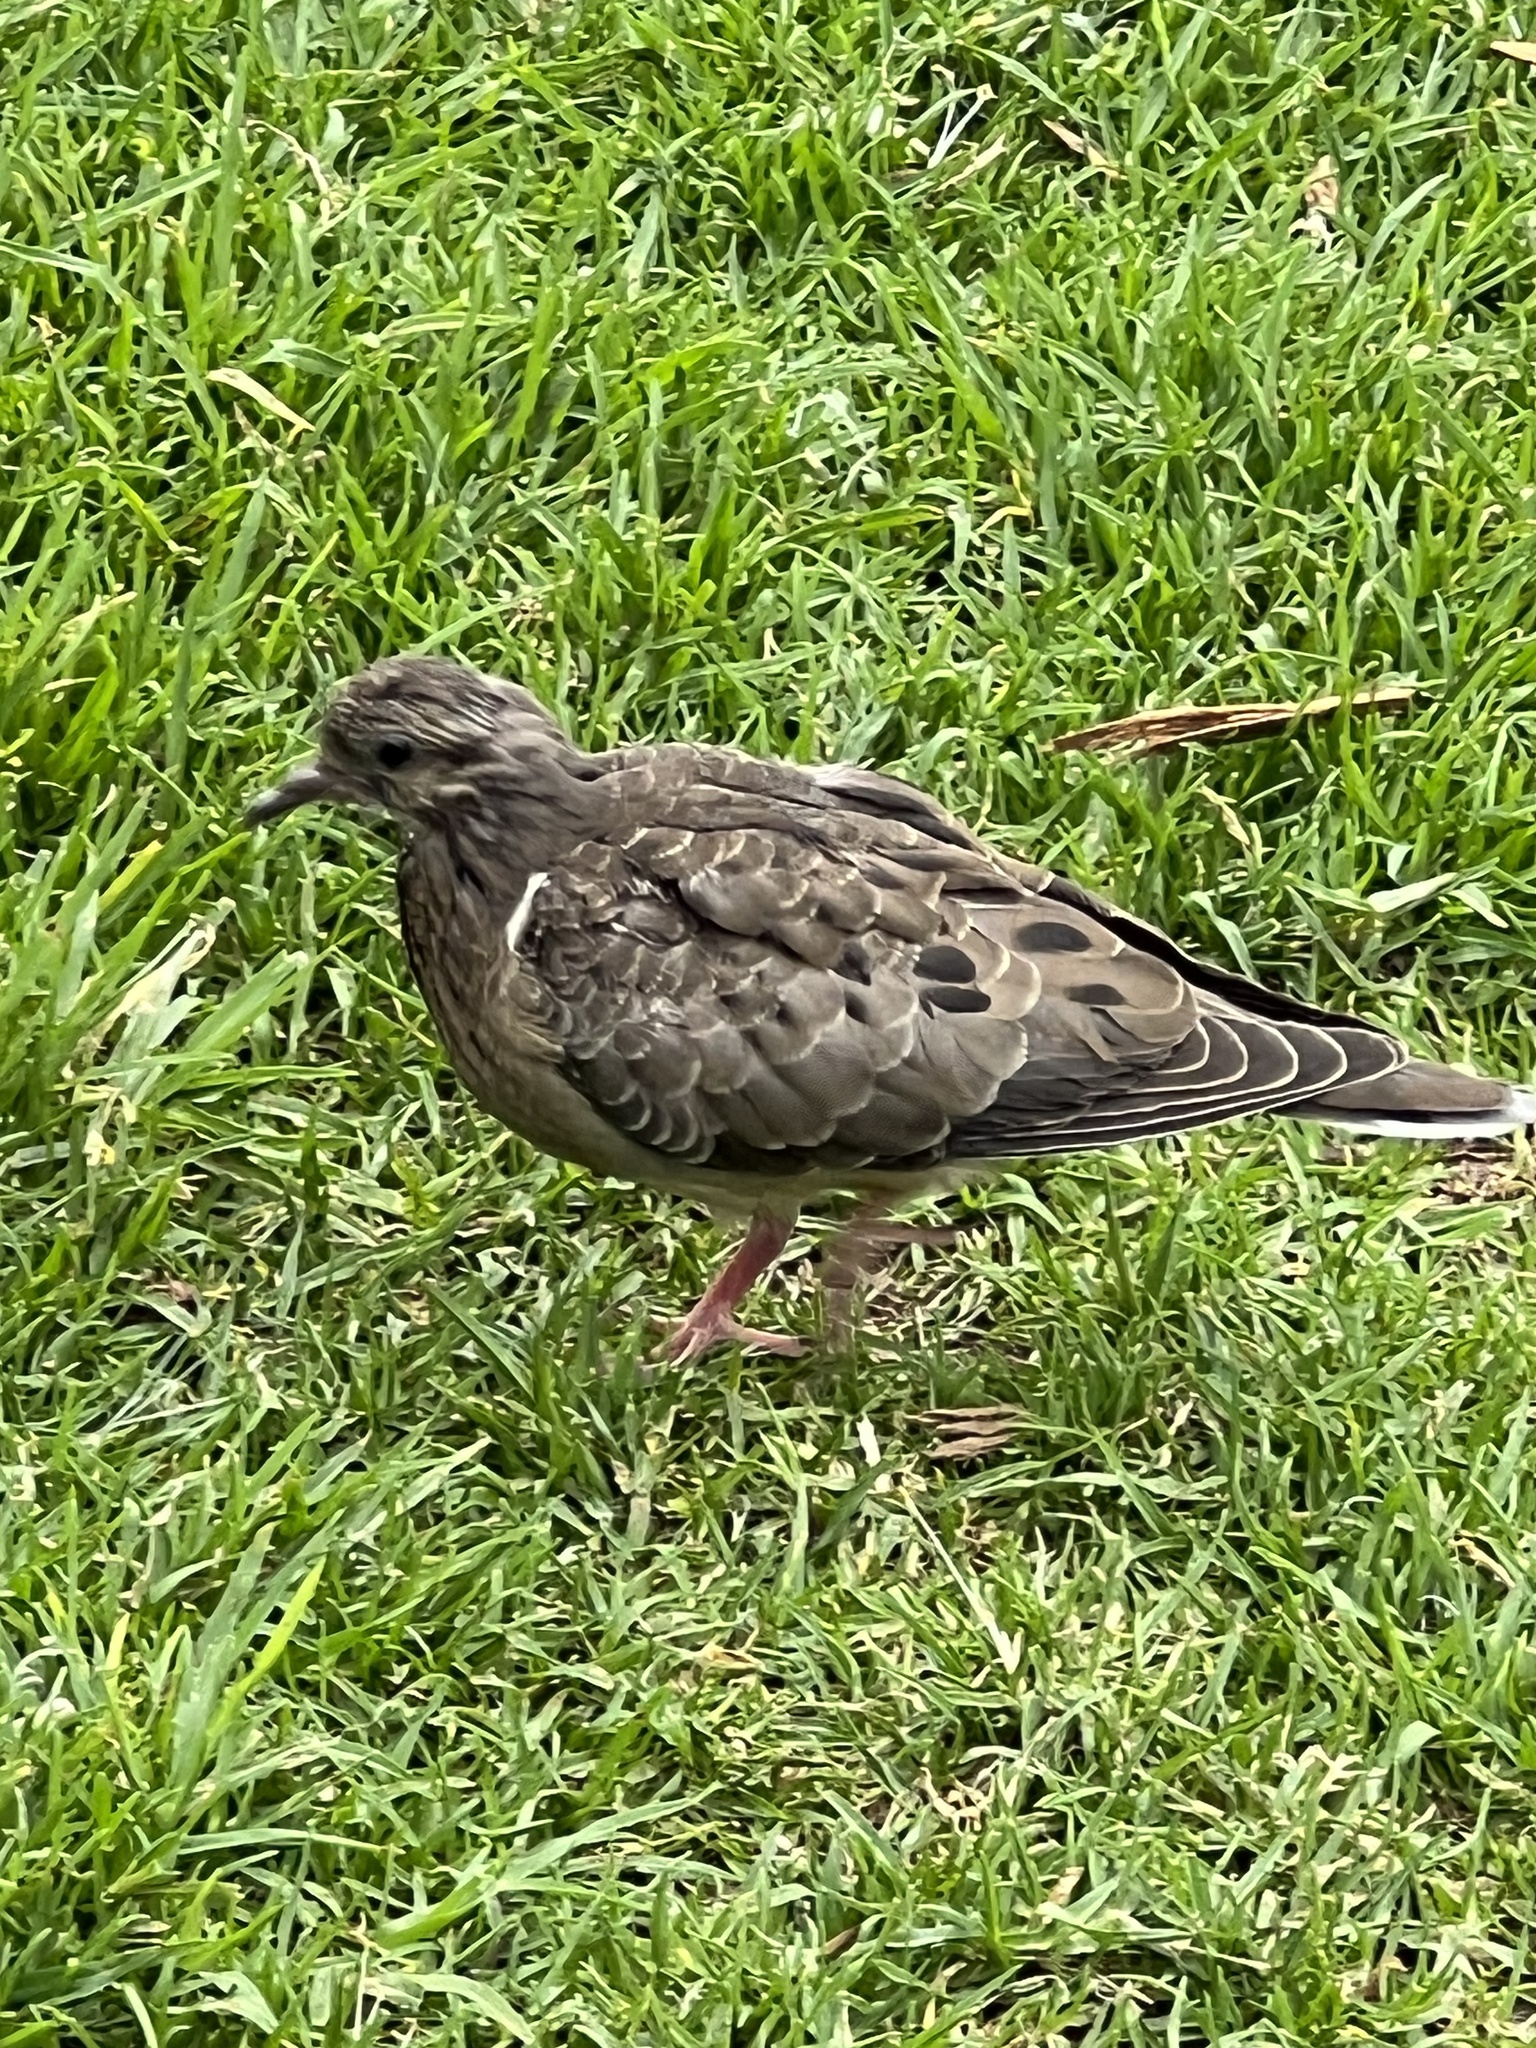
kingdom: Animalia
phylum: Chordata
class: Aves
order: Columbiformes
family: Columbidae
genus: Zenaida
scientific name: Zenaida auriculata
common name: Eared dove
